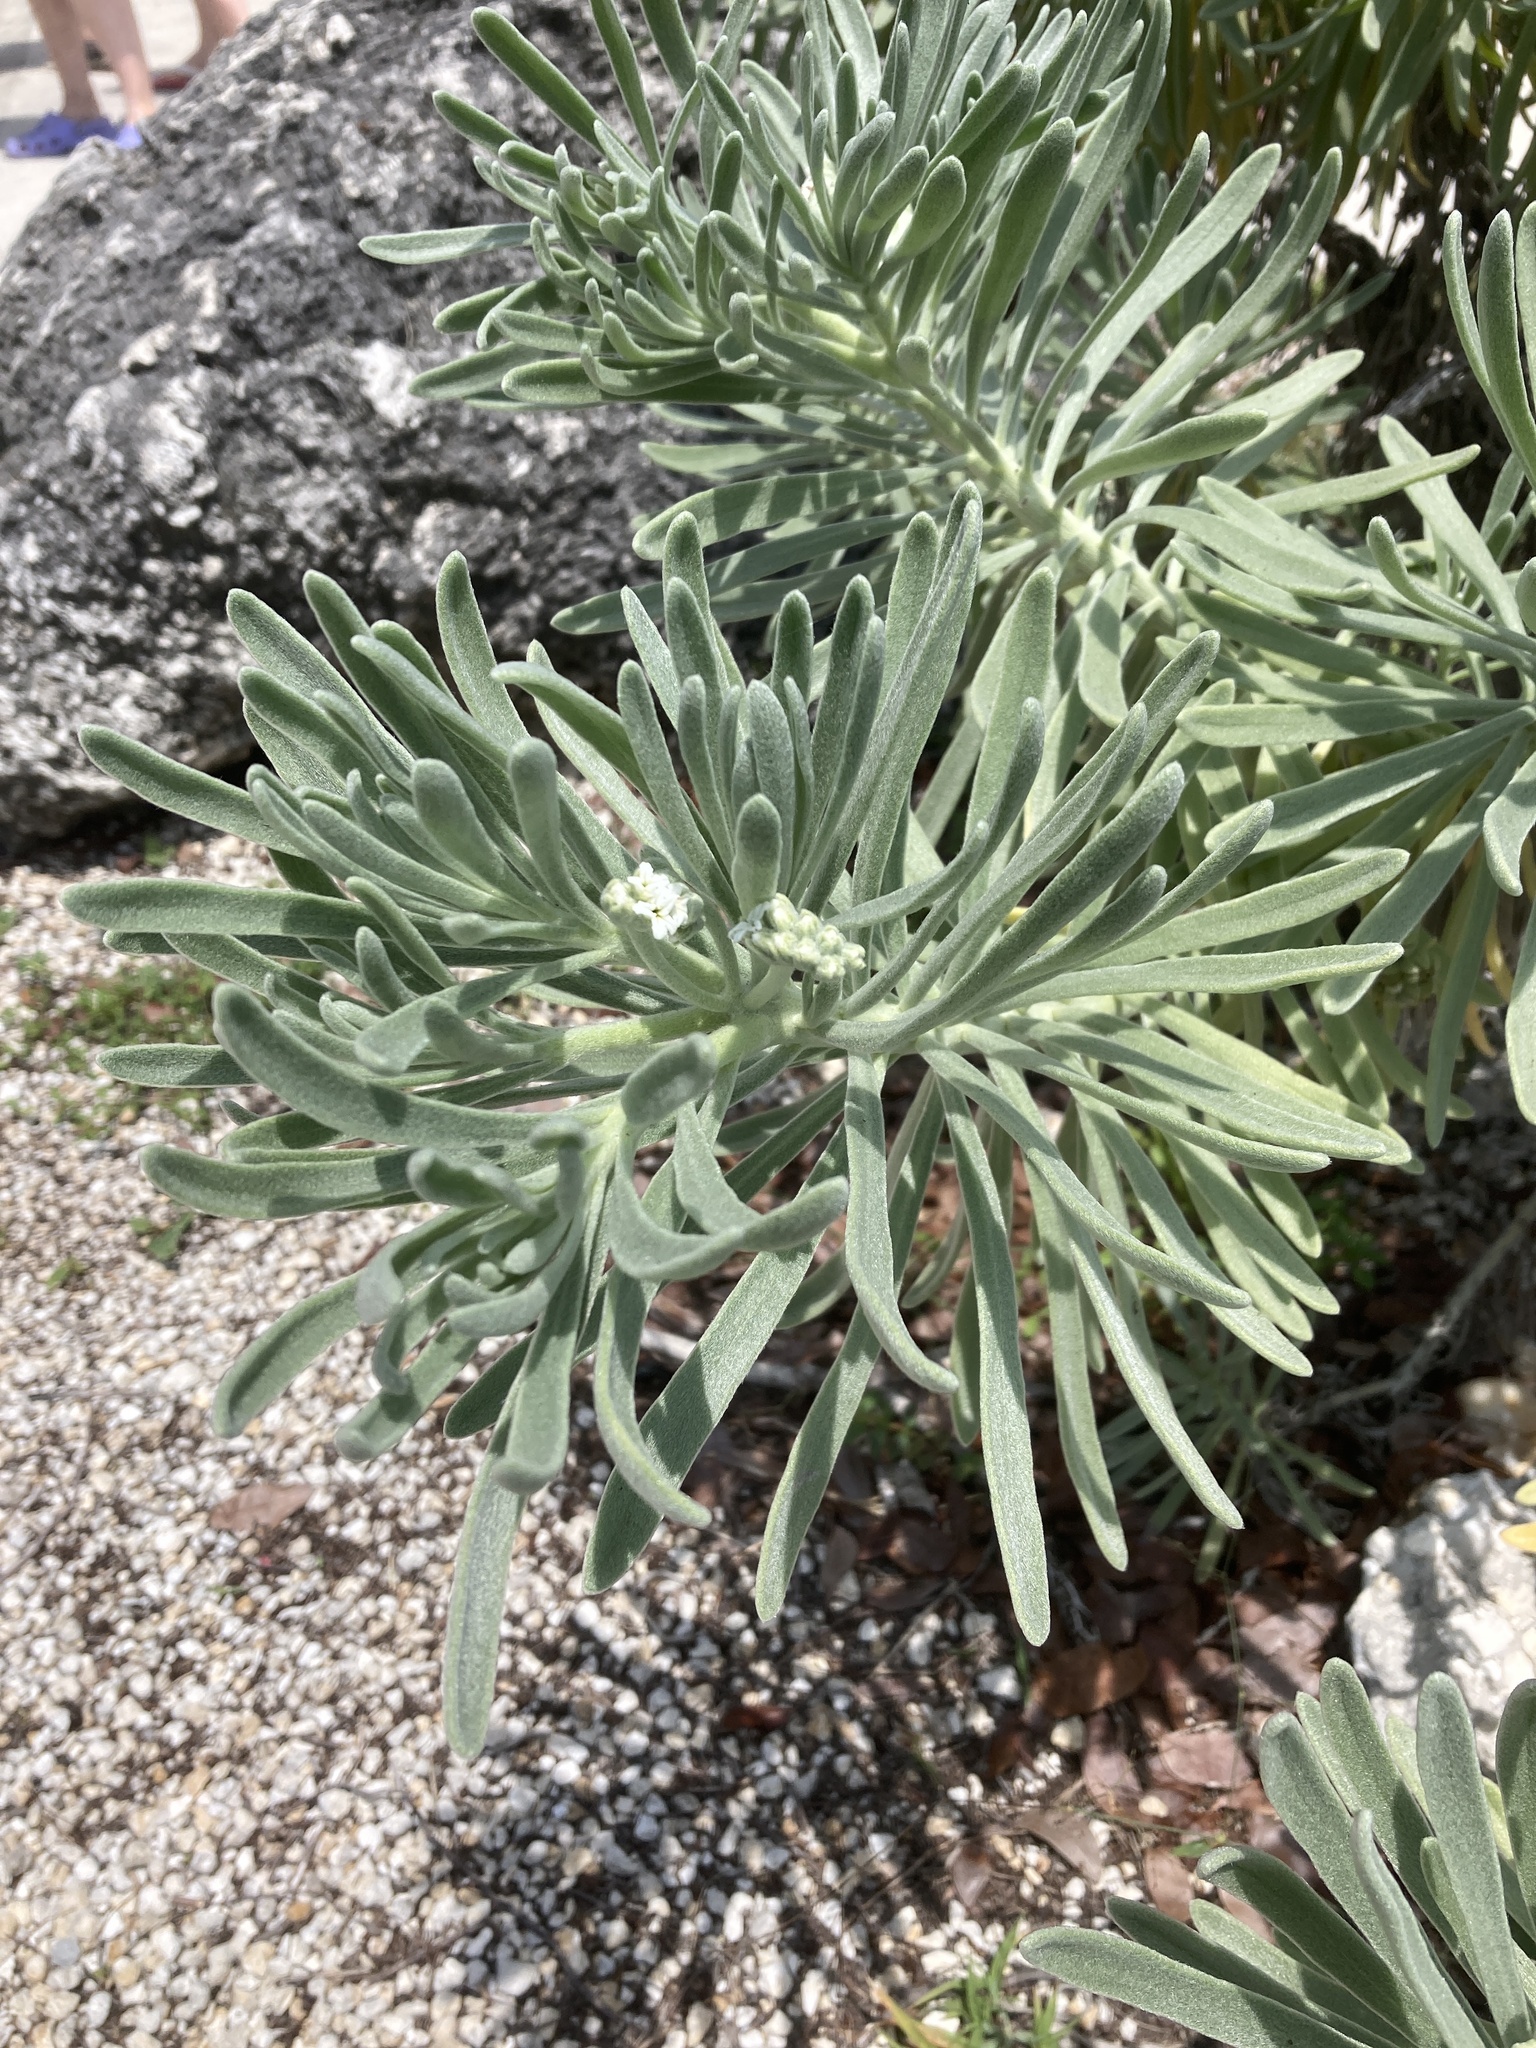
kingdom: Plantae
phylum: Tracheophyta
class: Magnoliopsida
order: Boraginales
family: Heliotropiaceae
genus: Tournefortia
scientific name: Tournefortia gnaphalodes
